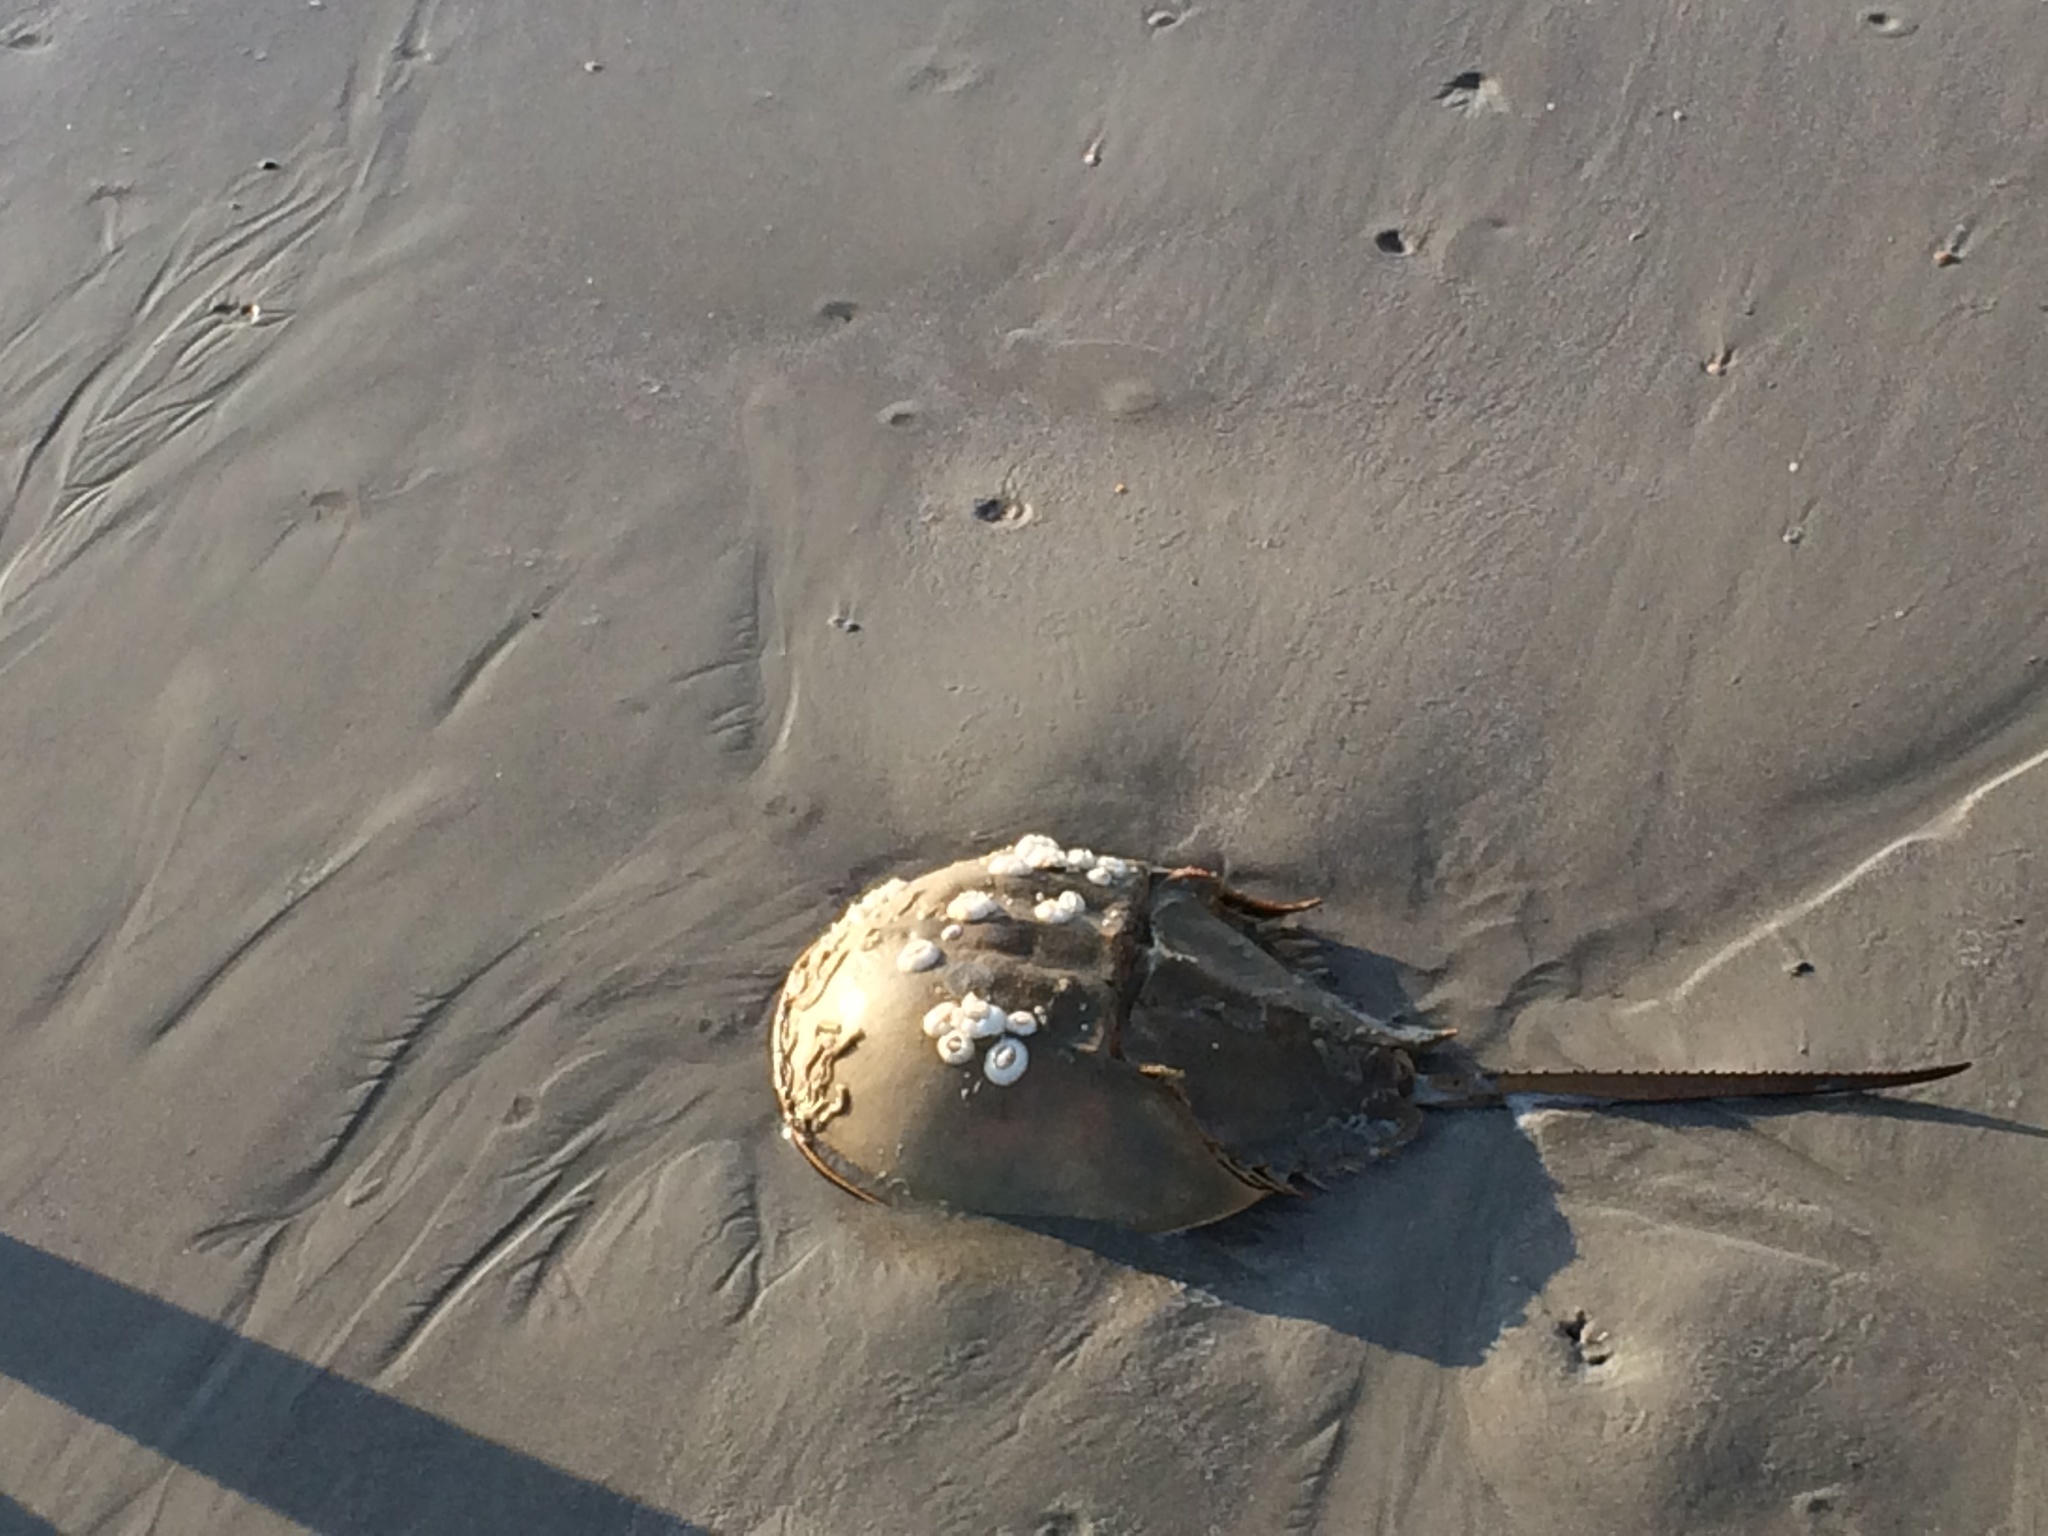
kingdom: Animalia
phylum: Arthropoda
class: Merostomata
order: Xiphosurida
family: Limulidae
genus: Limulus
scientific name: Limulus polyphemus
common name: Horseshoe crab
